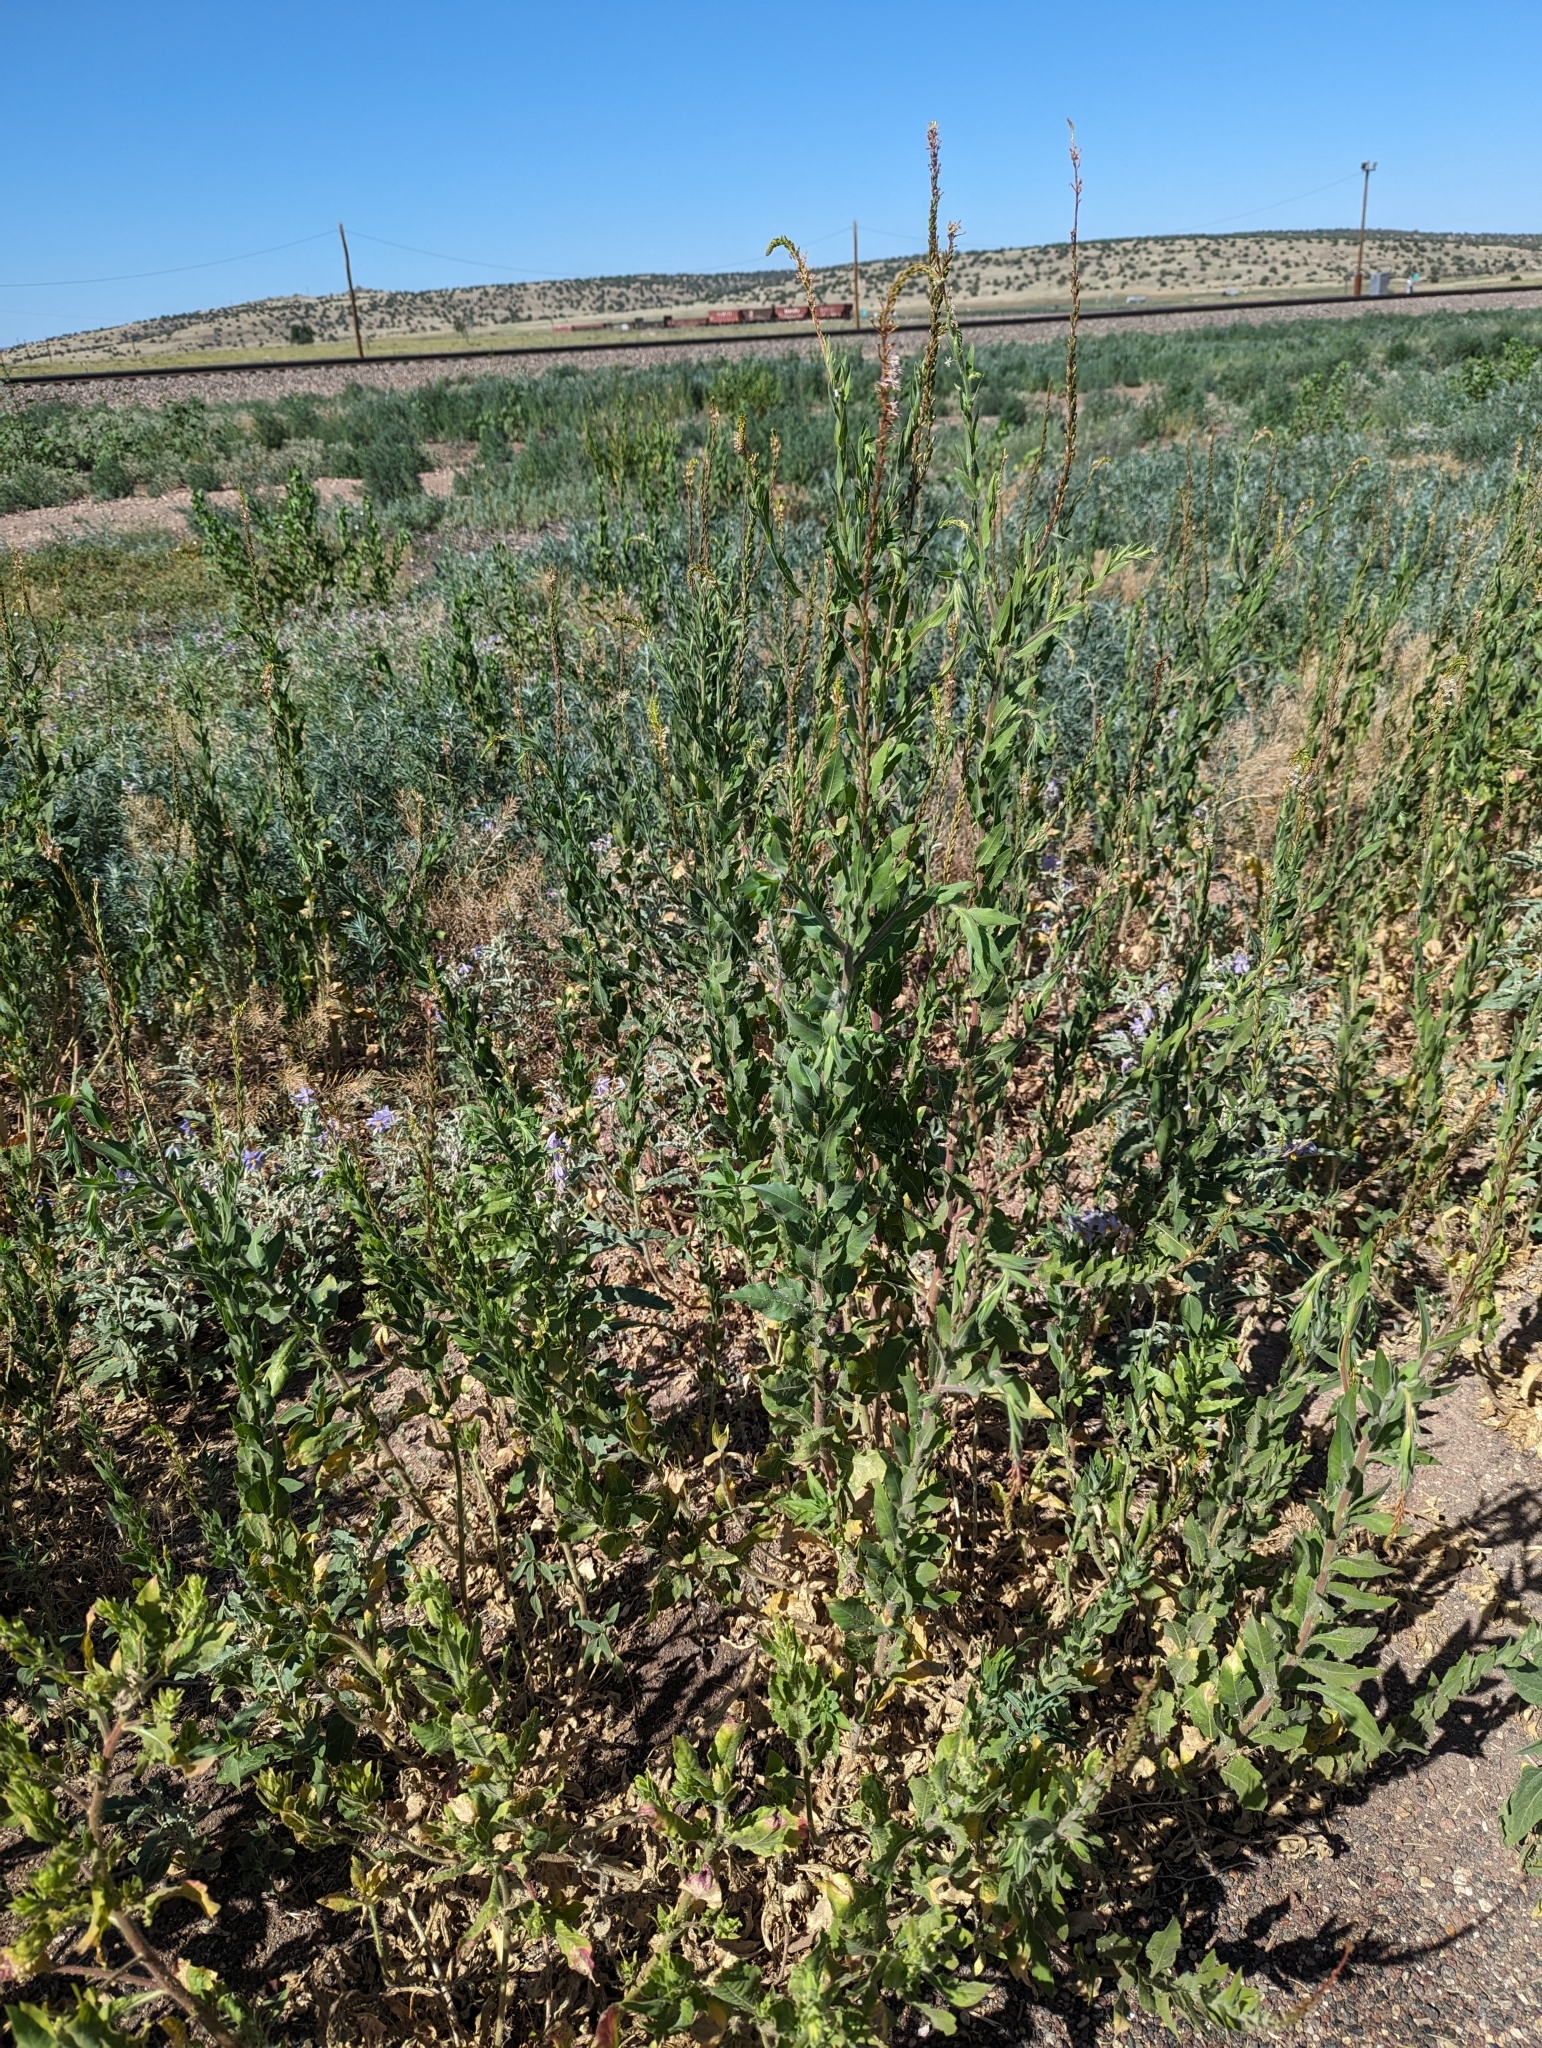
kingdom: Plantae
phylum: Tracheophyta
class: Magnoliopsida
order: Myrtales
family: Onagraceae
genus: Oenothera
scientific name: Oenothera curtiflora
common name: Velvetweed
